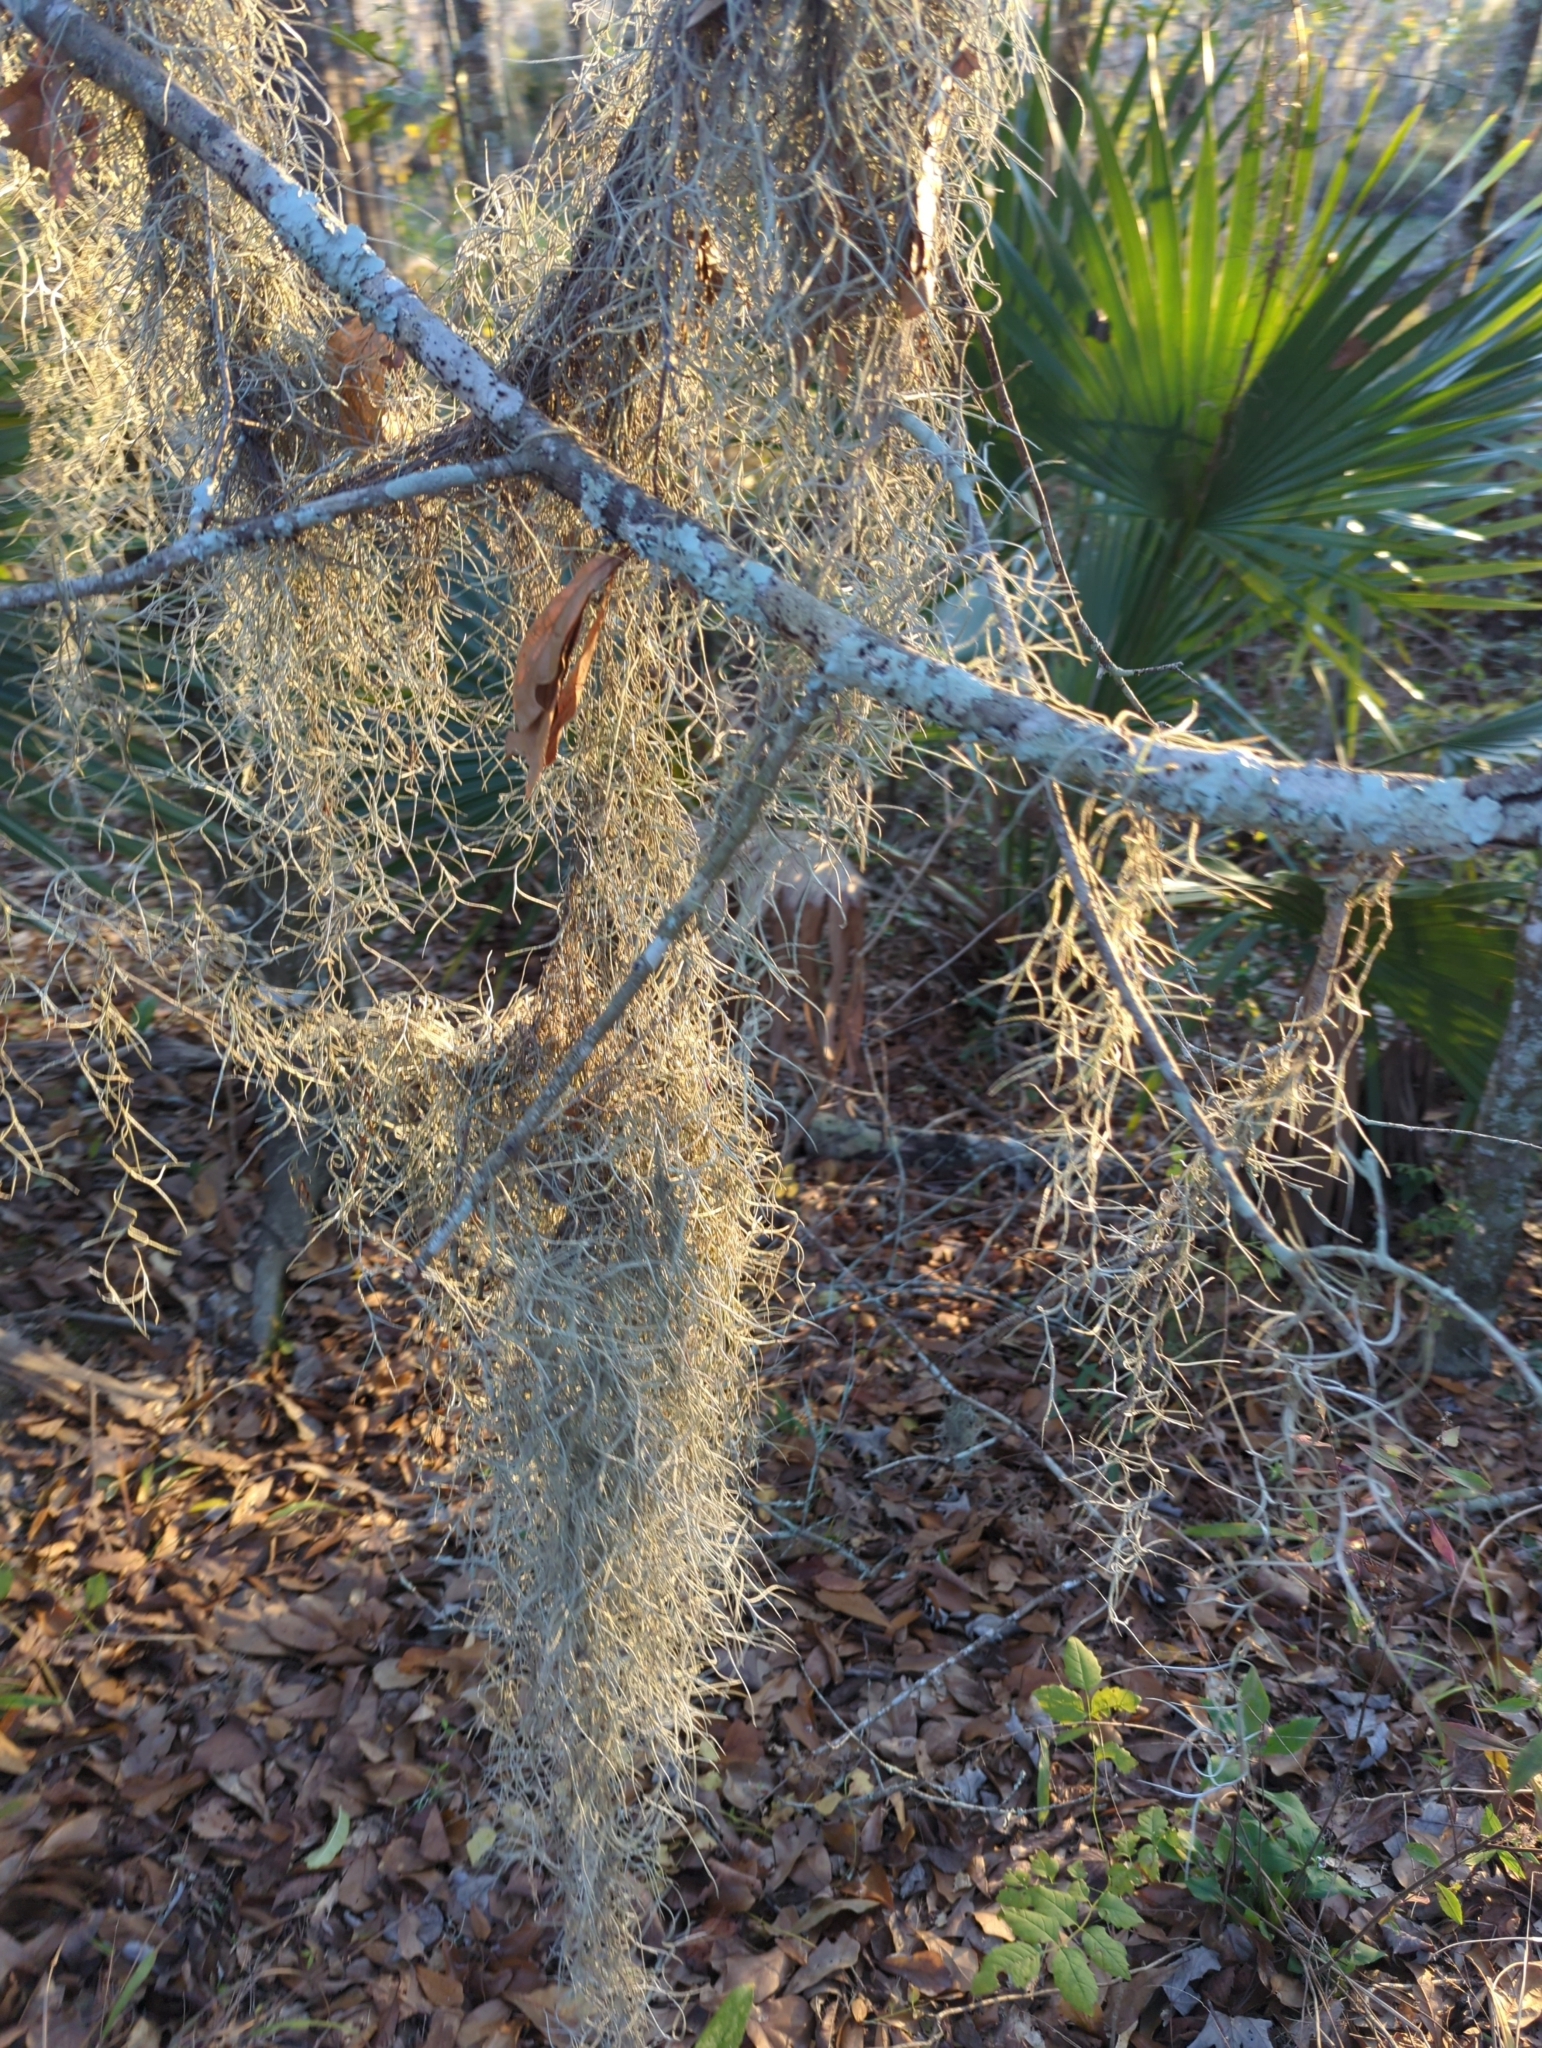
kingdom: Plantae
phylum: Tracheophyta
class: Liliopsida
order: Poales
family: Bromeliaceae
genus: Tillandsia
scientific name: Tillandsia usneoides
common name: Spanish moss
